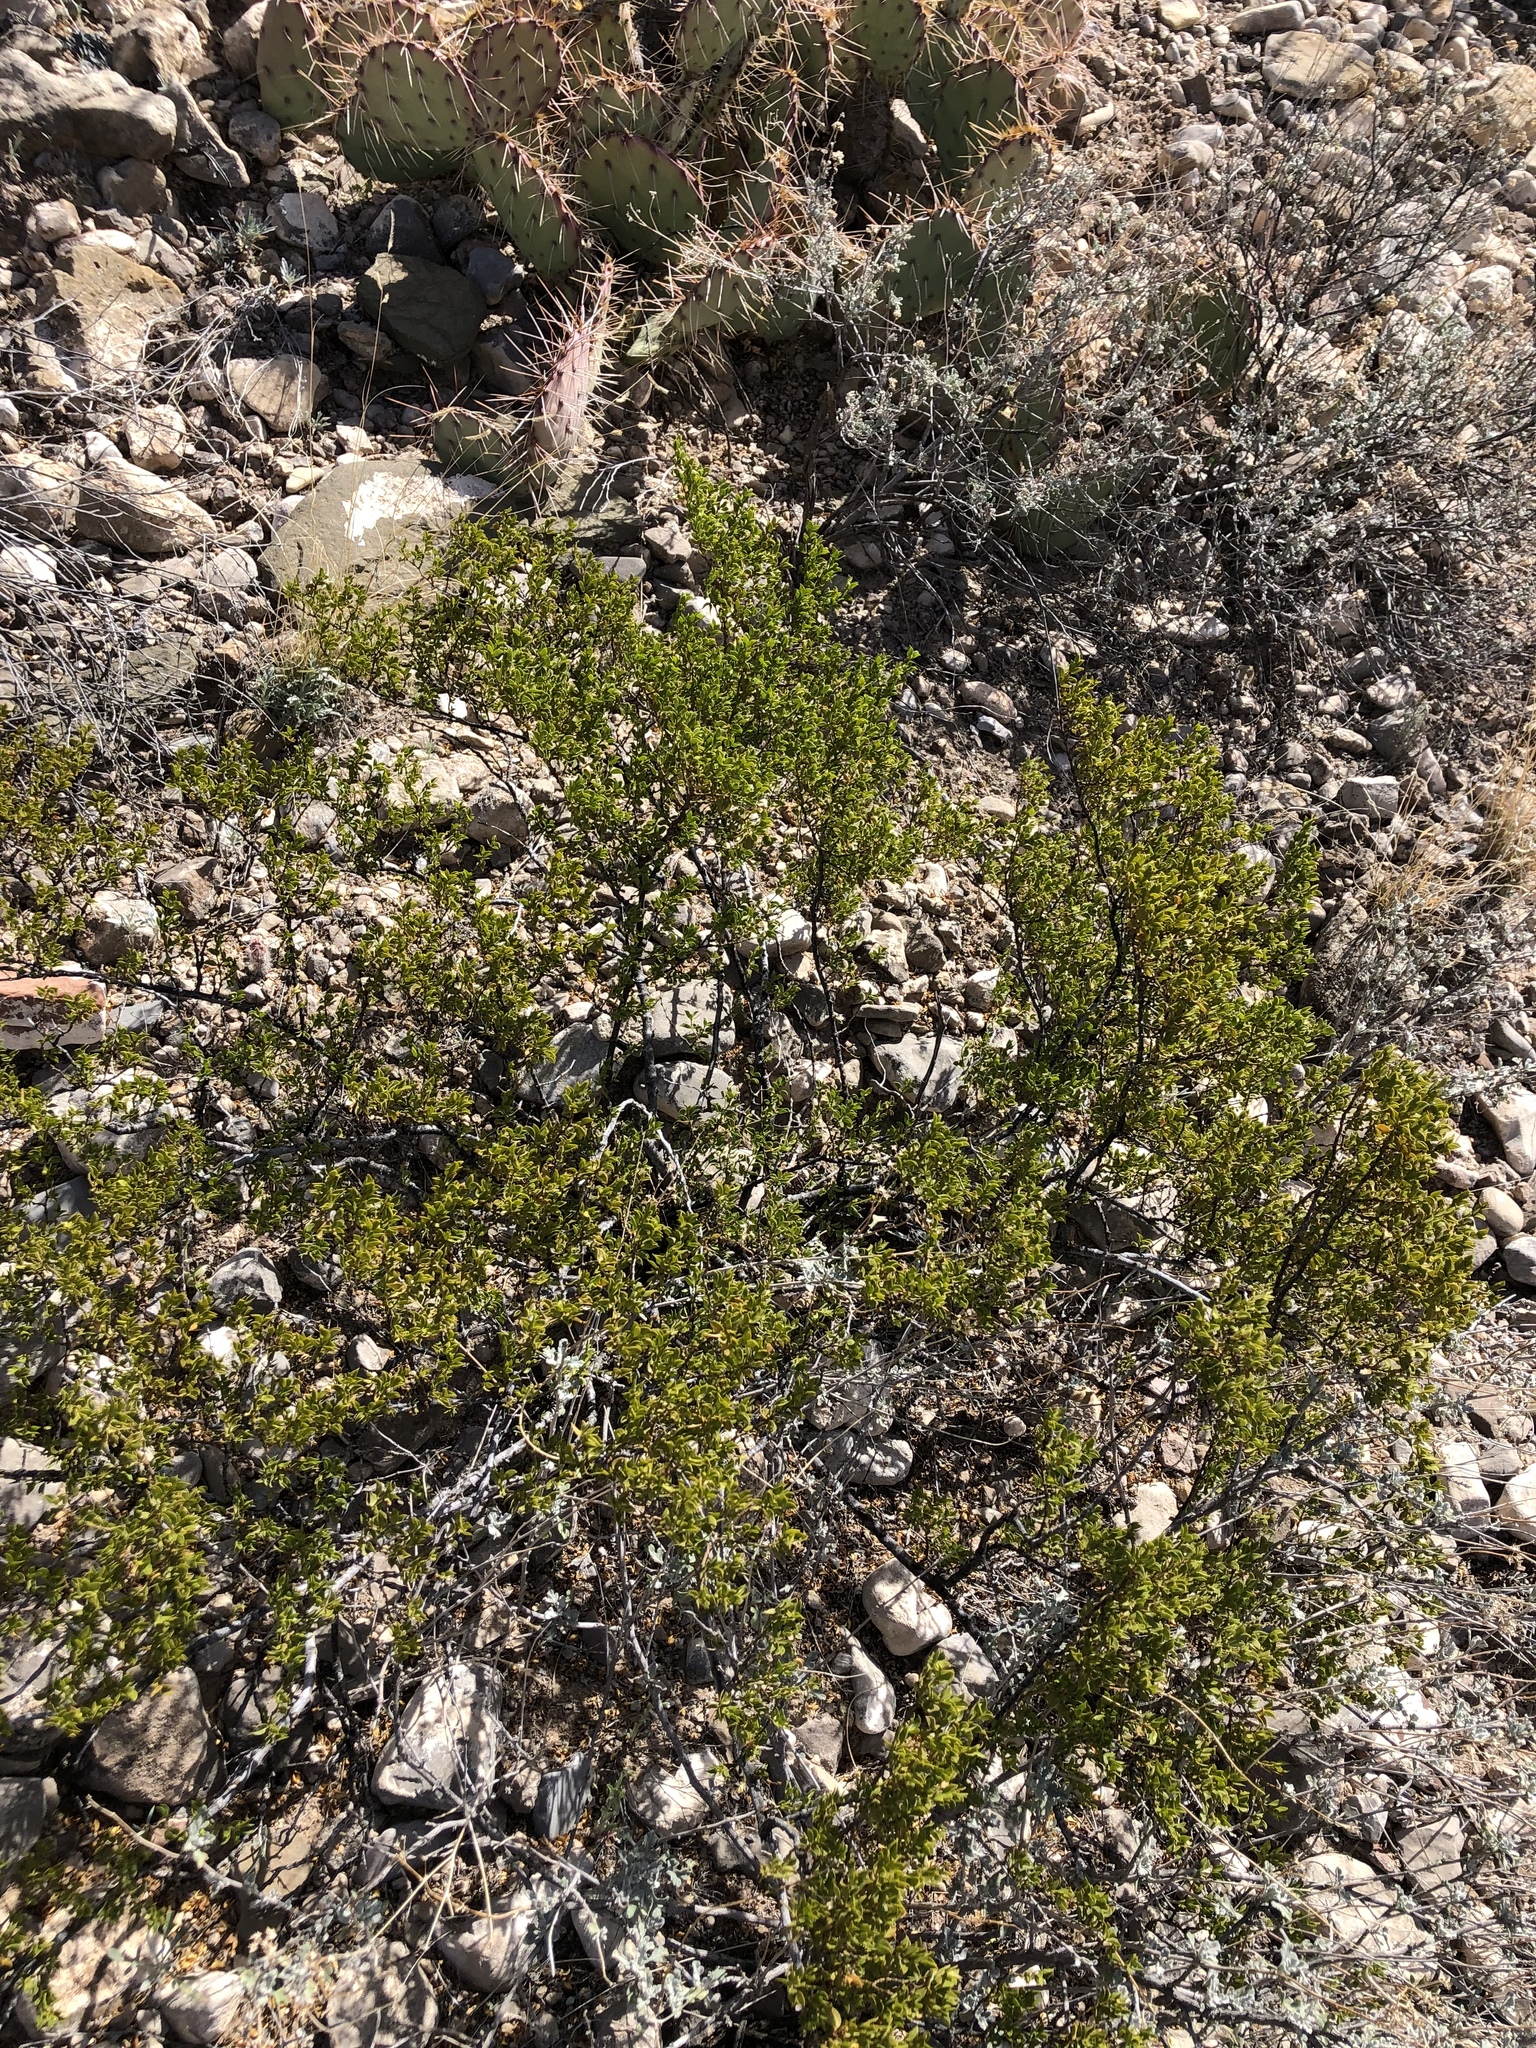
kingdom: Plantae
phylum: Tracheophyta
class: Magnoliopsida
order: Zygophyllales
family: Zygophyllaceae
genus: Larrea
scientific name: Larrea tridentata
